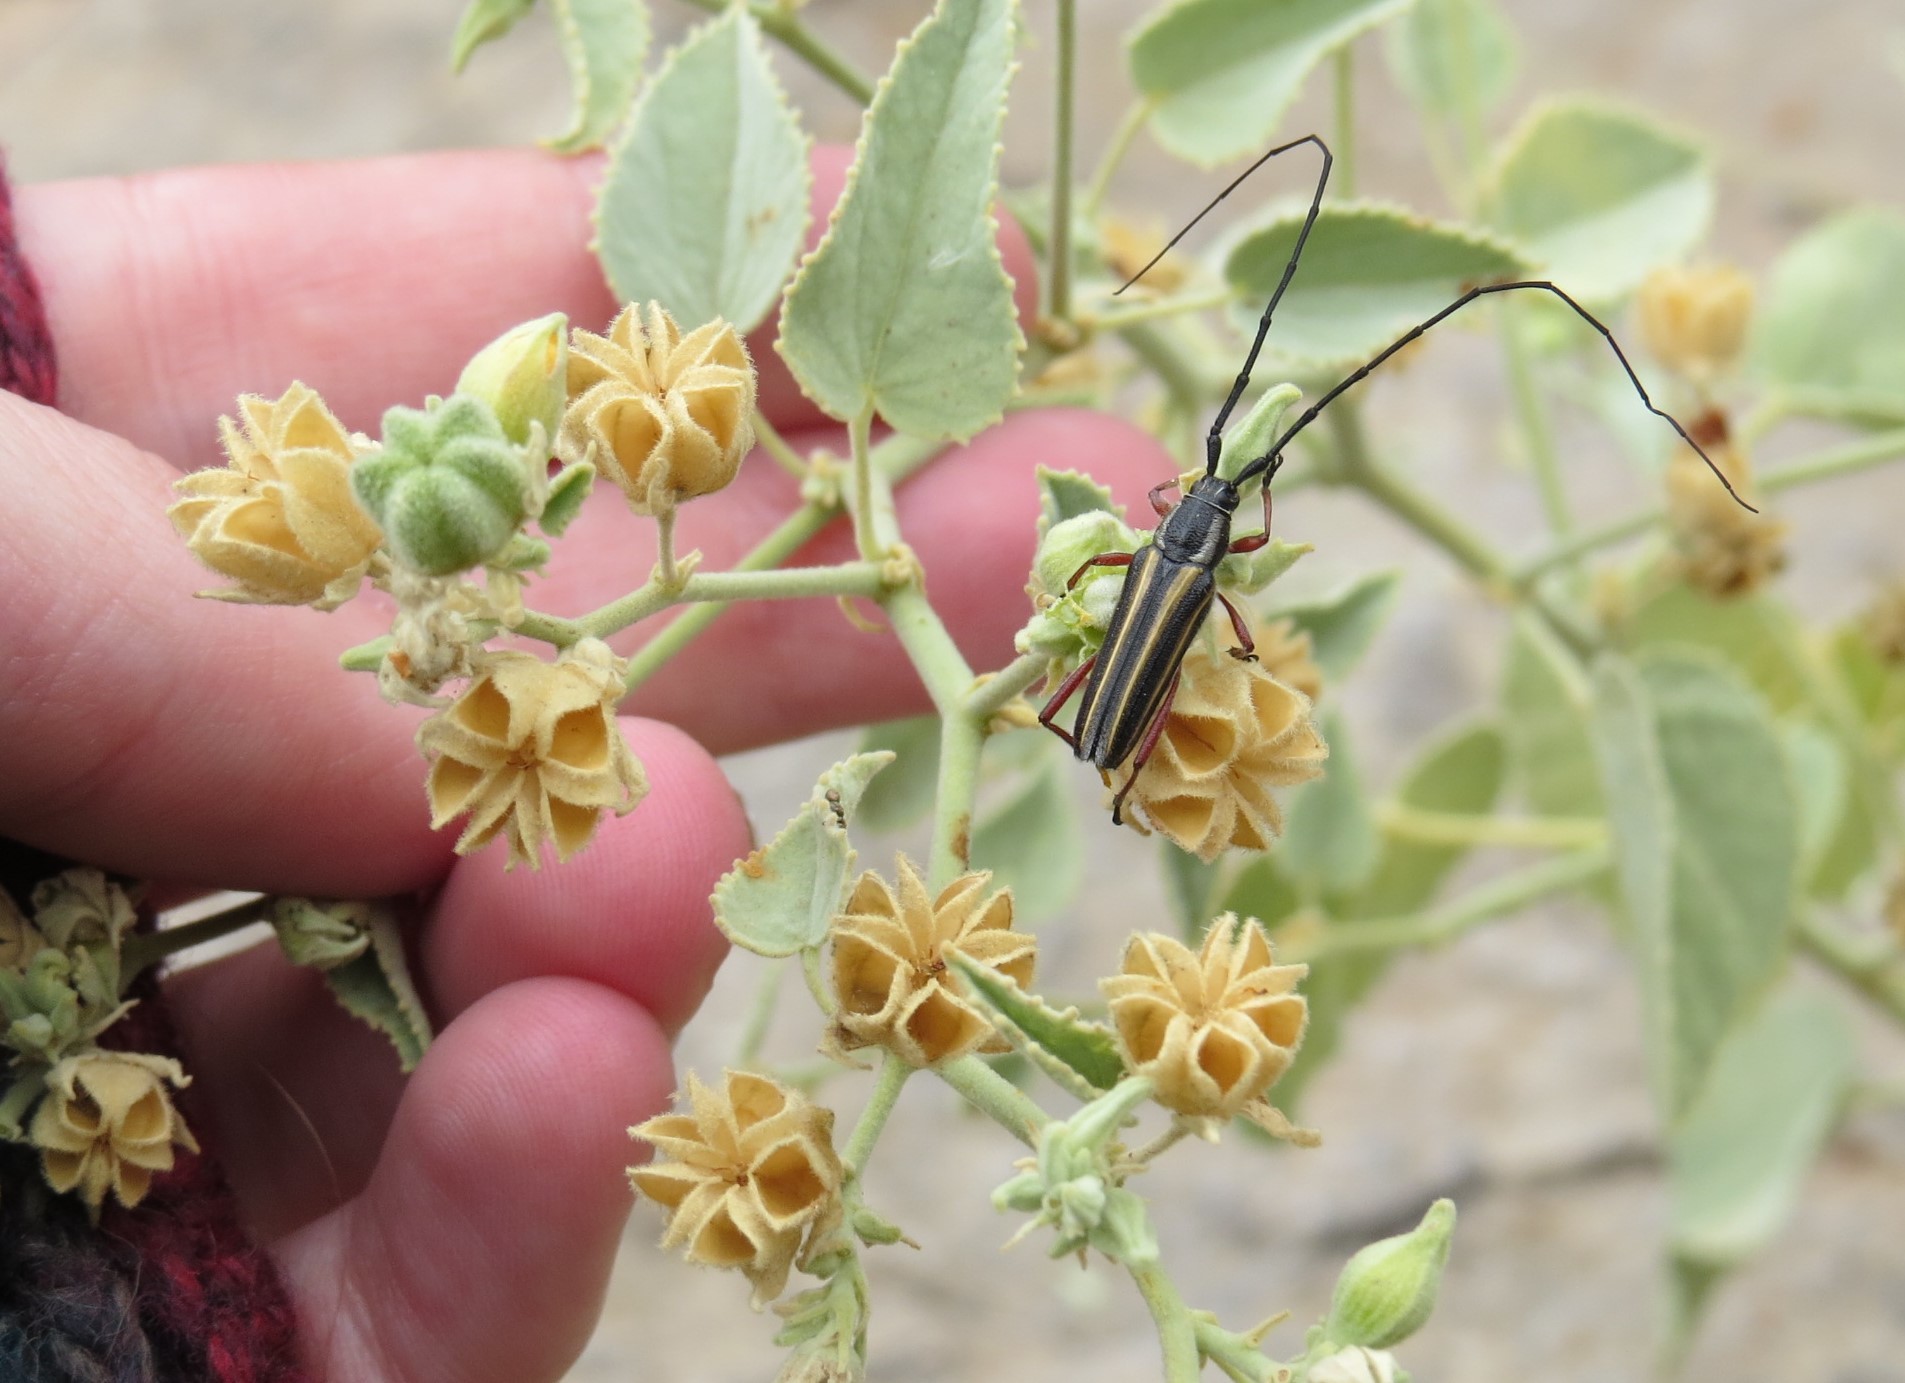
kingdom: Animalia
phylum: Arthropoda
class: Insecta
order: Coleoptera
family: Cerambycidae
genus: Sphaenothecus
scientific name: Sphaenothecus bilineatus
